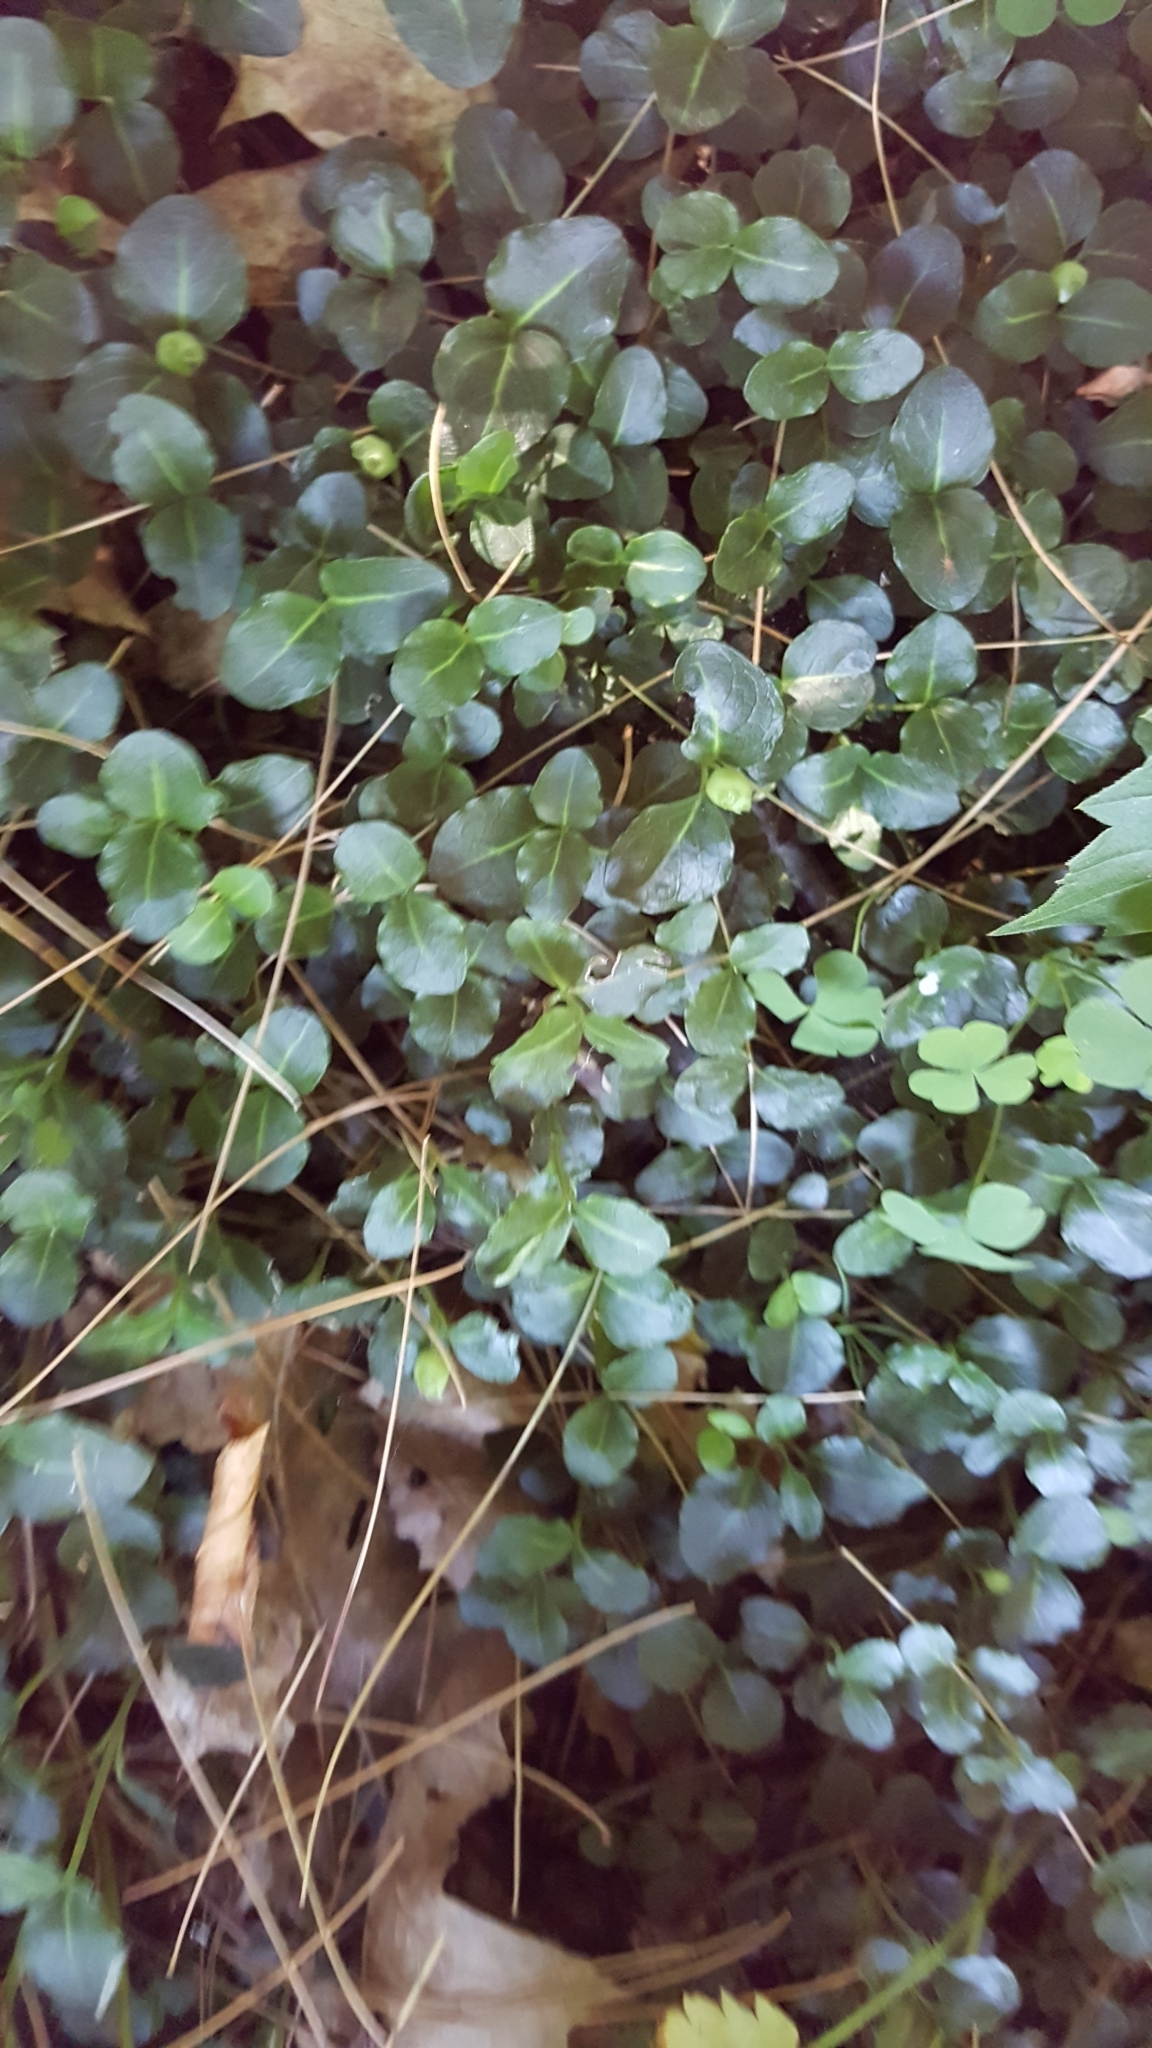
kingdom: Plantae
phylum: Tracheophyta
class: Magnoliopsida
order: Gentianales
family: Rubiaceae
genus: Mitchella
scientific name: Mitchella repens
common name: Partridge-berry
